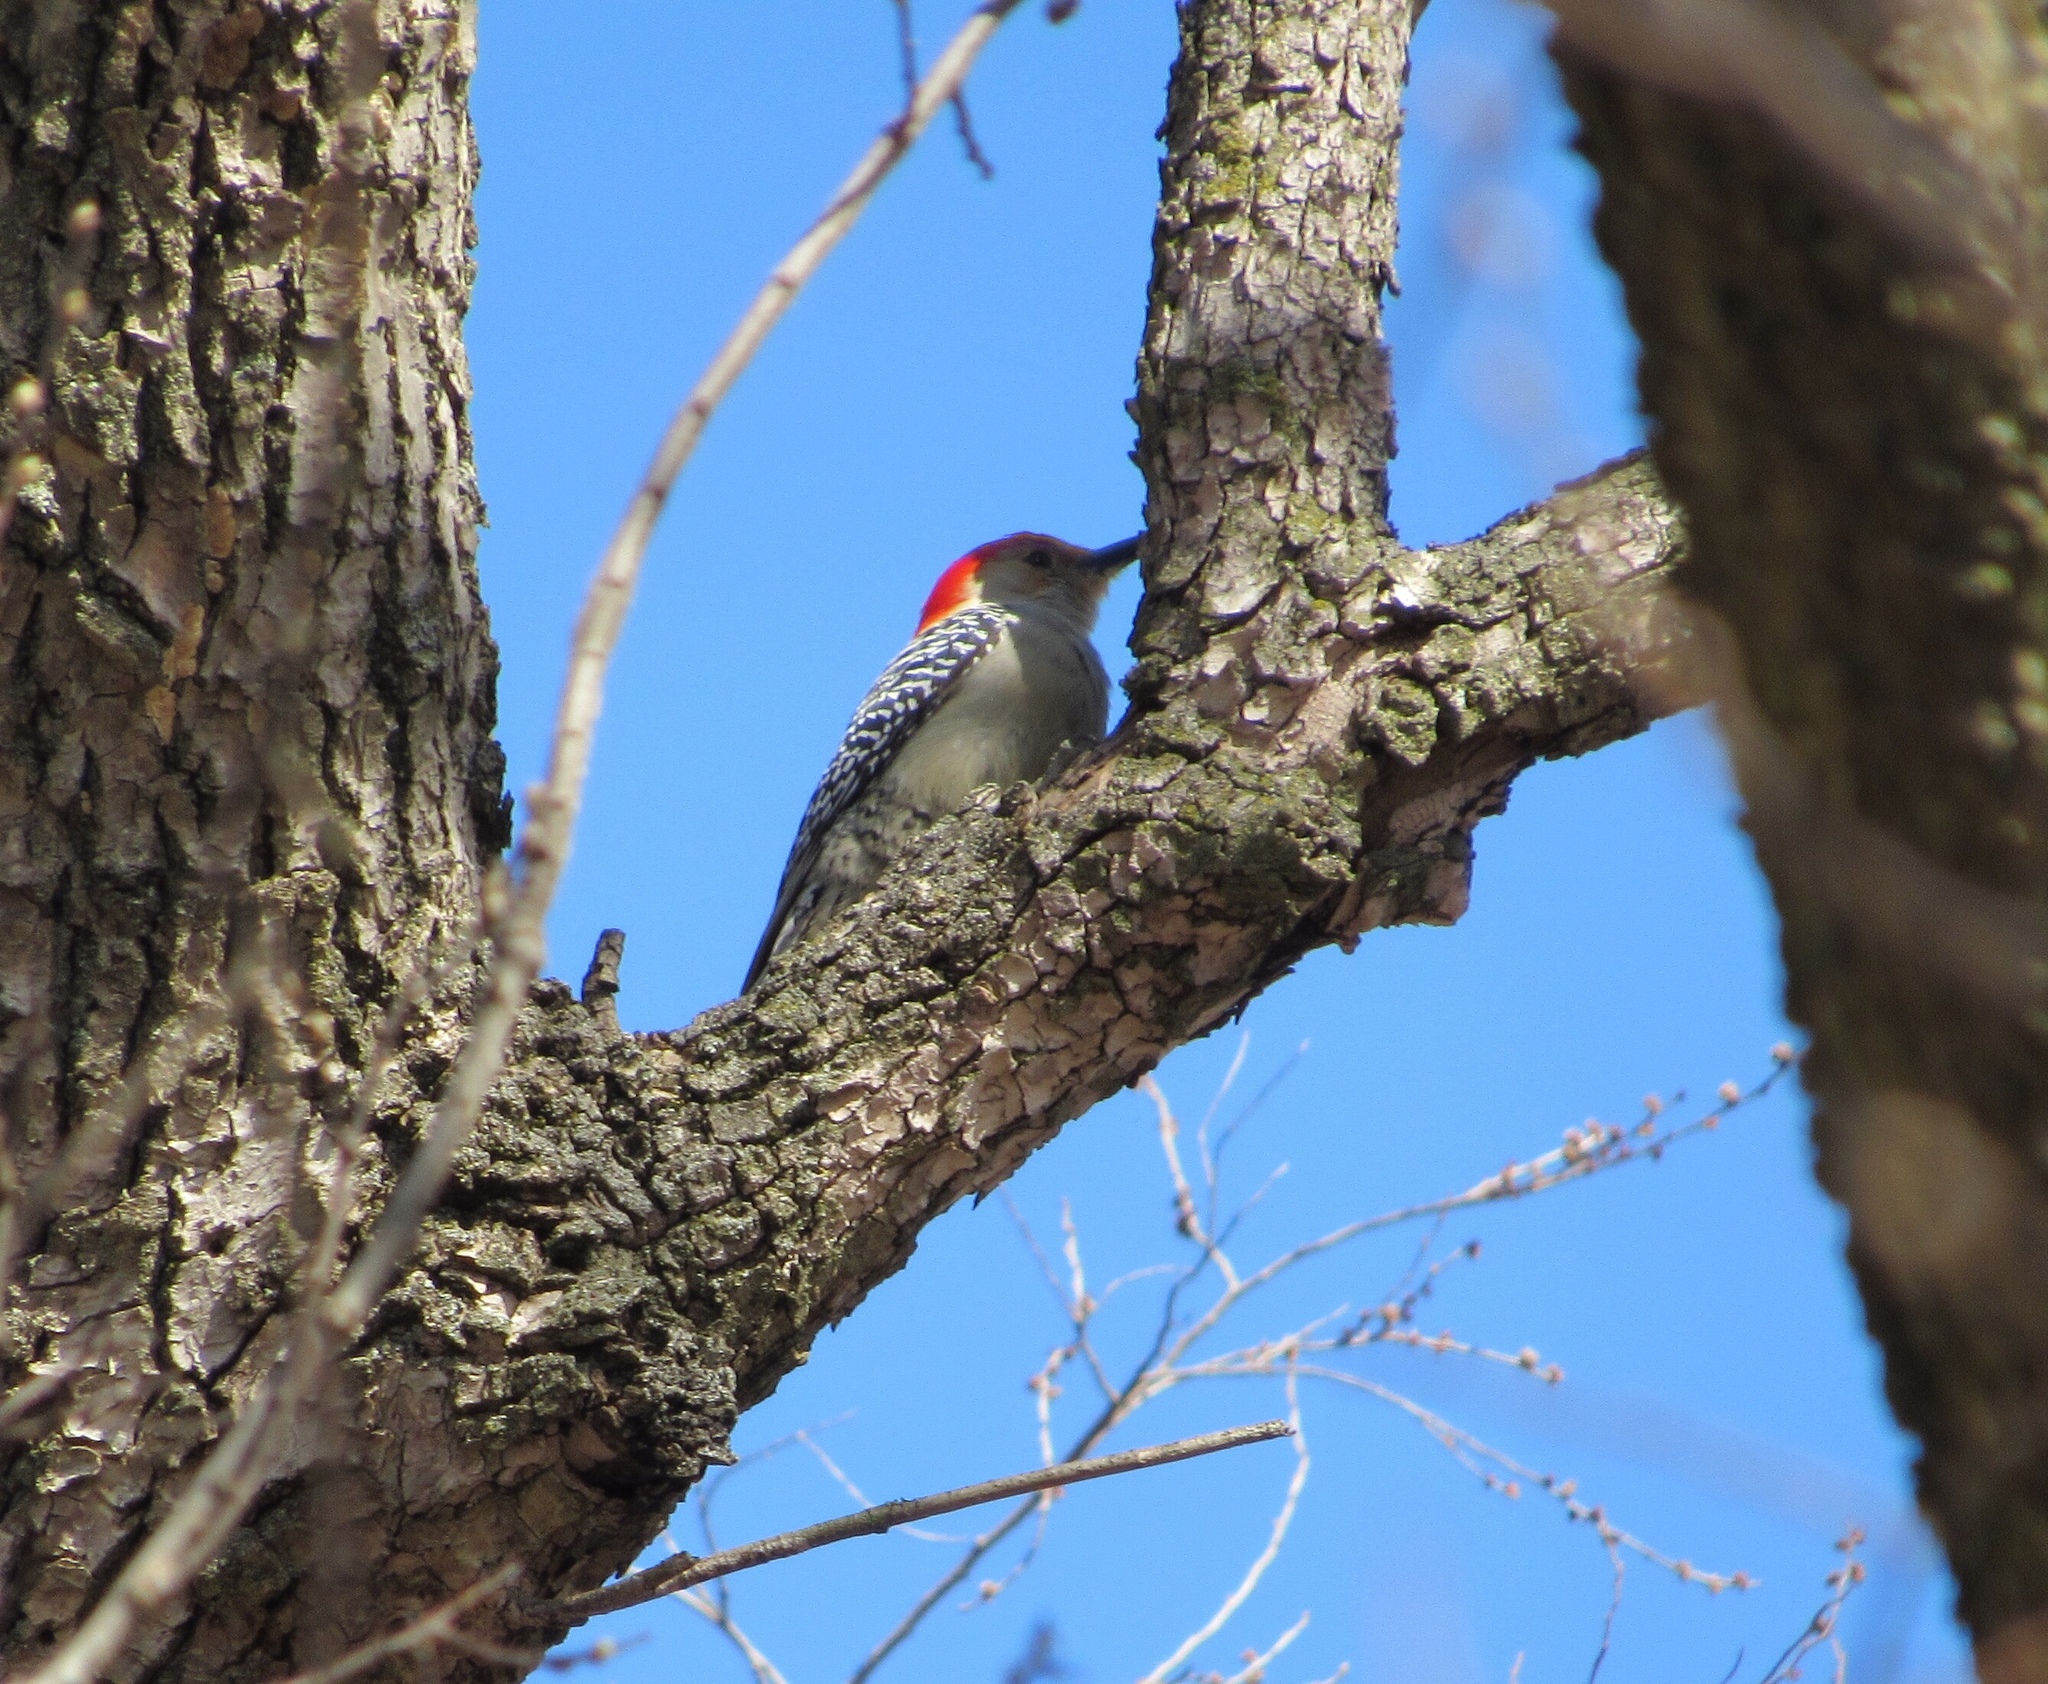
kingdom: Animalia
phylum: Chordata
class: Aves
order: Piciformes
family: Picidae
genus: Melanerpes
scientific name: Melanerpes carolinus
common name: Red-bellied woodpecker
